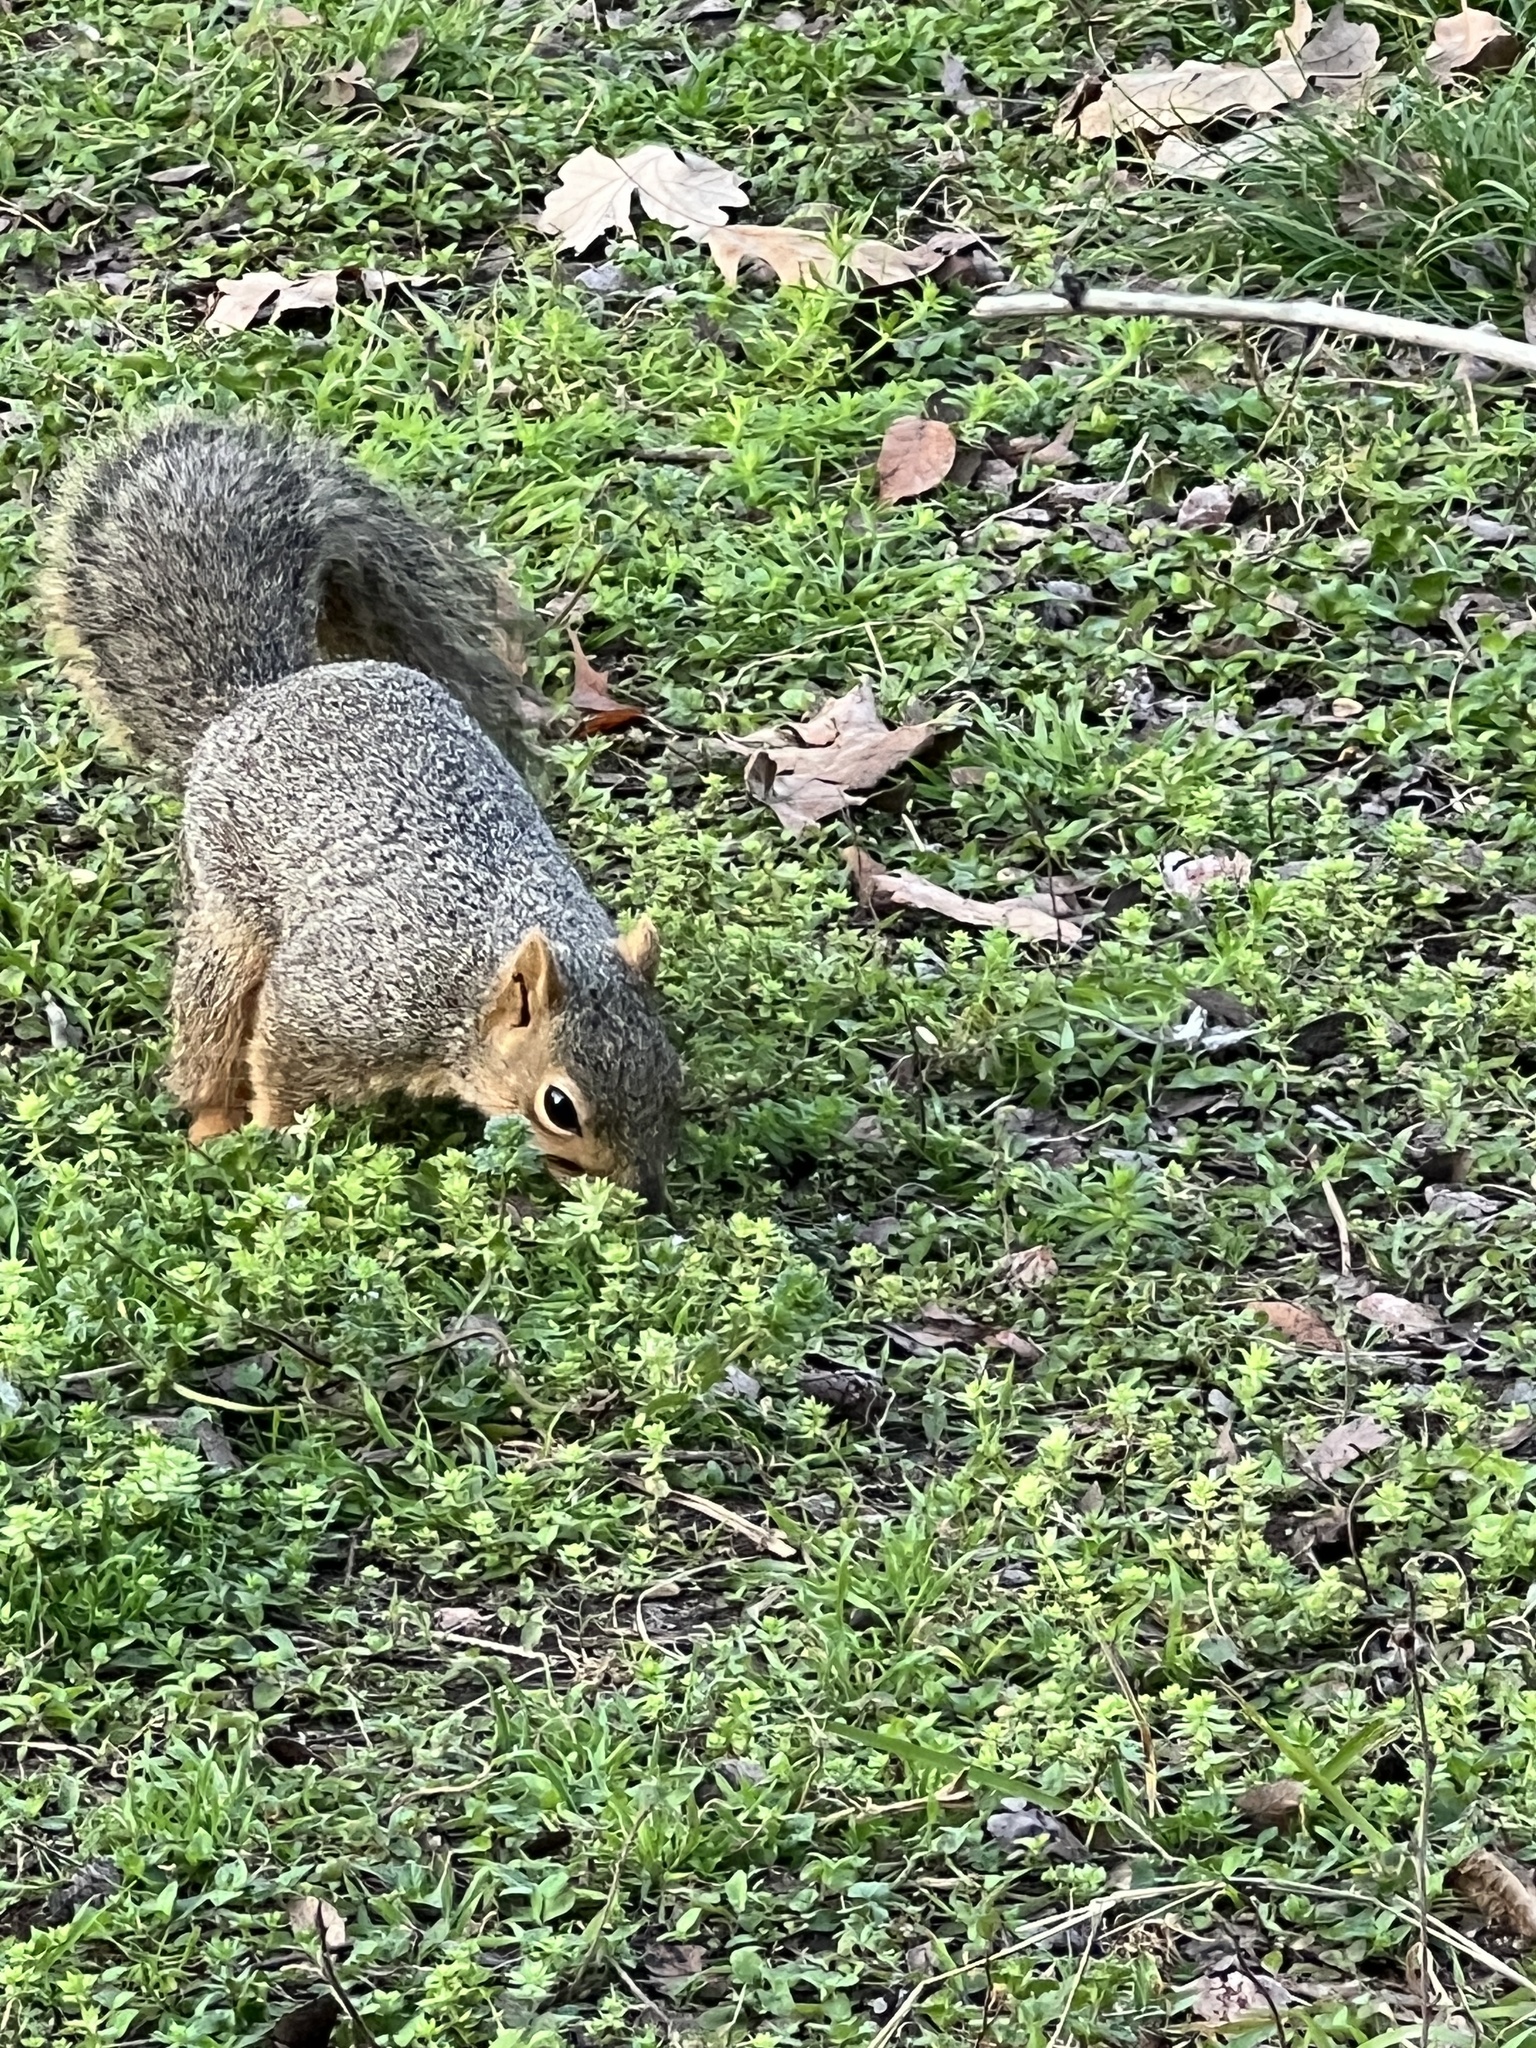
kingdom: Animalia
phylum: Chordata
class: Mammalia
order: Rodentia
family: Sciuridae
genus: Sciurus
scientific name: Sciurus niger
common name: Fox squirrel
